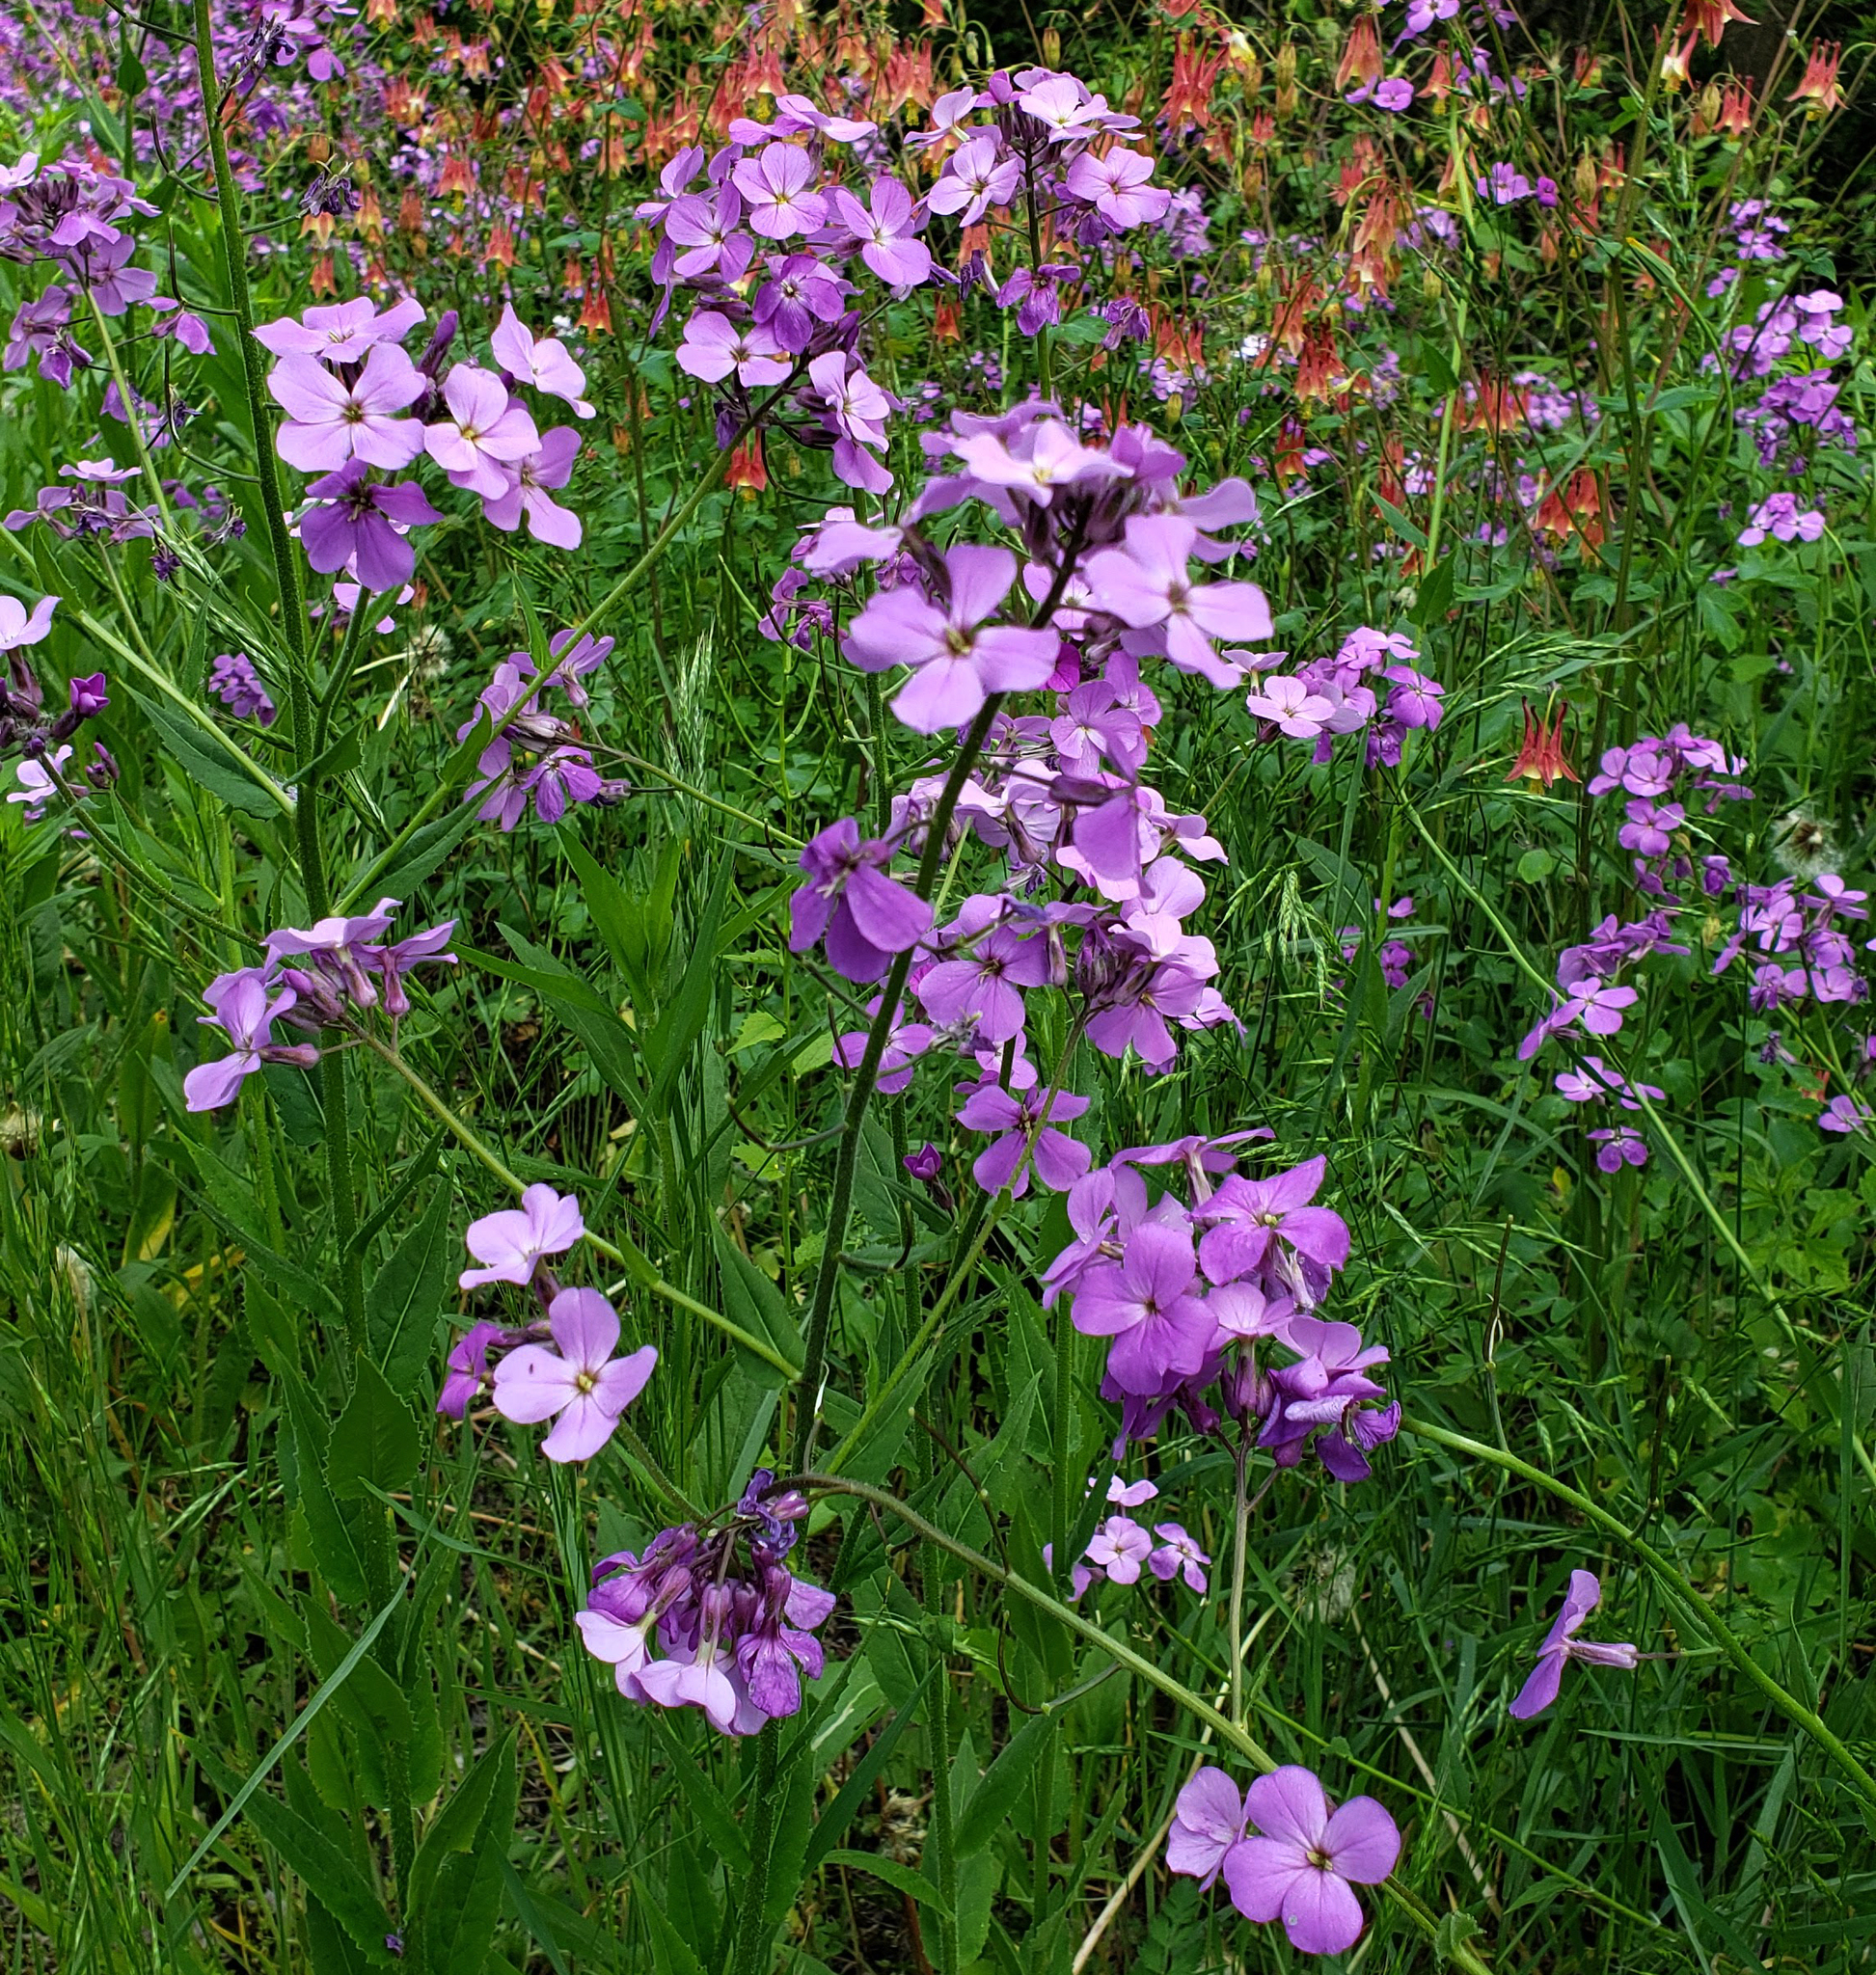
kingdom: Plantae
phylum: Tracheophyta
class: Magnoliopsida
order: Brassicales
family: Brassicaceae
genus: Hesperis
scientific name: Hesperis matronalis
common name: Dame's-violet
